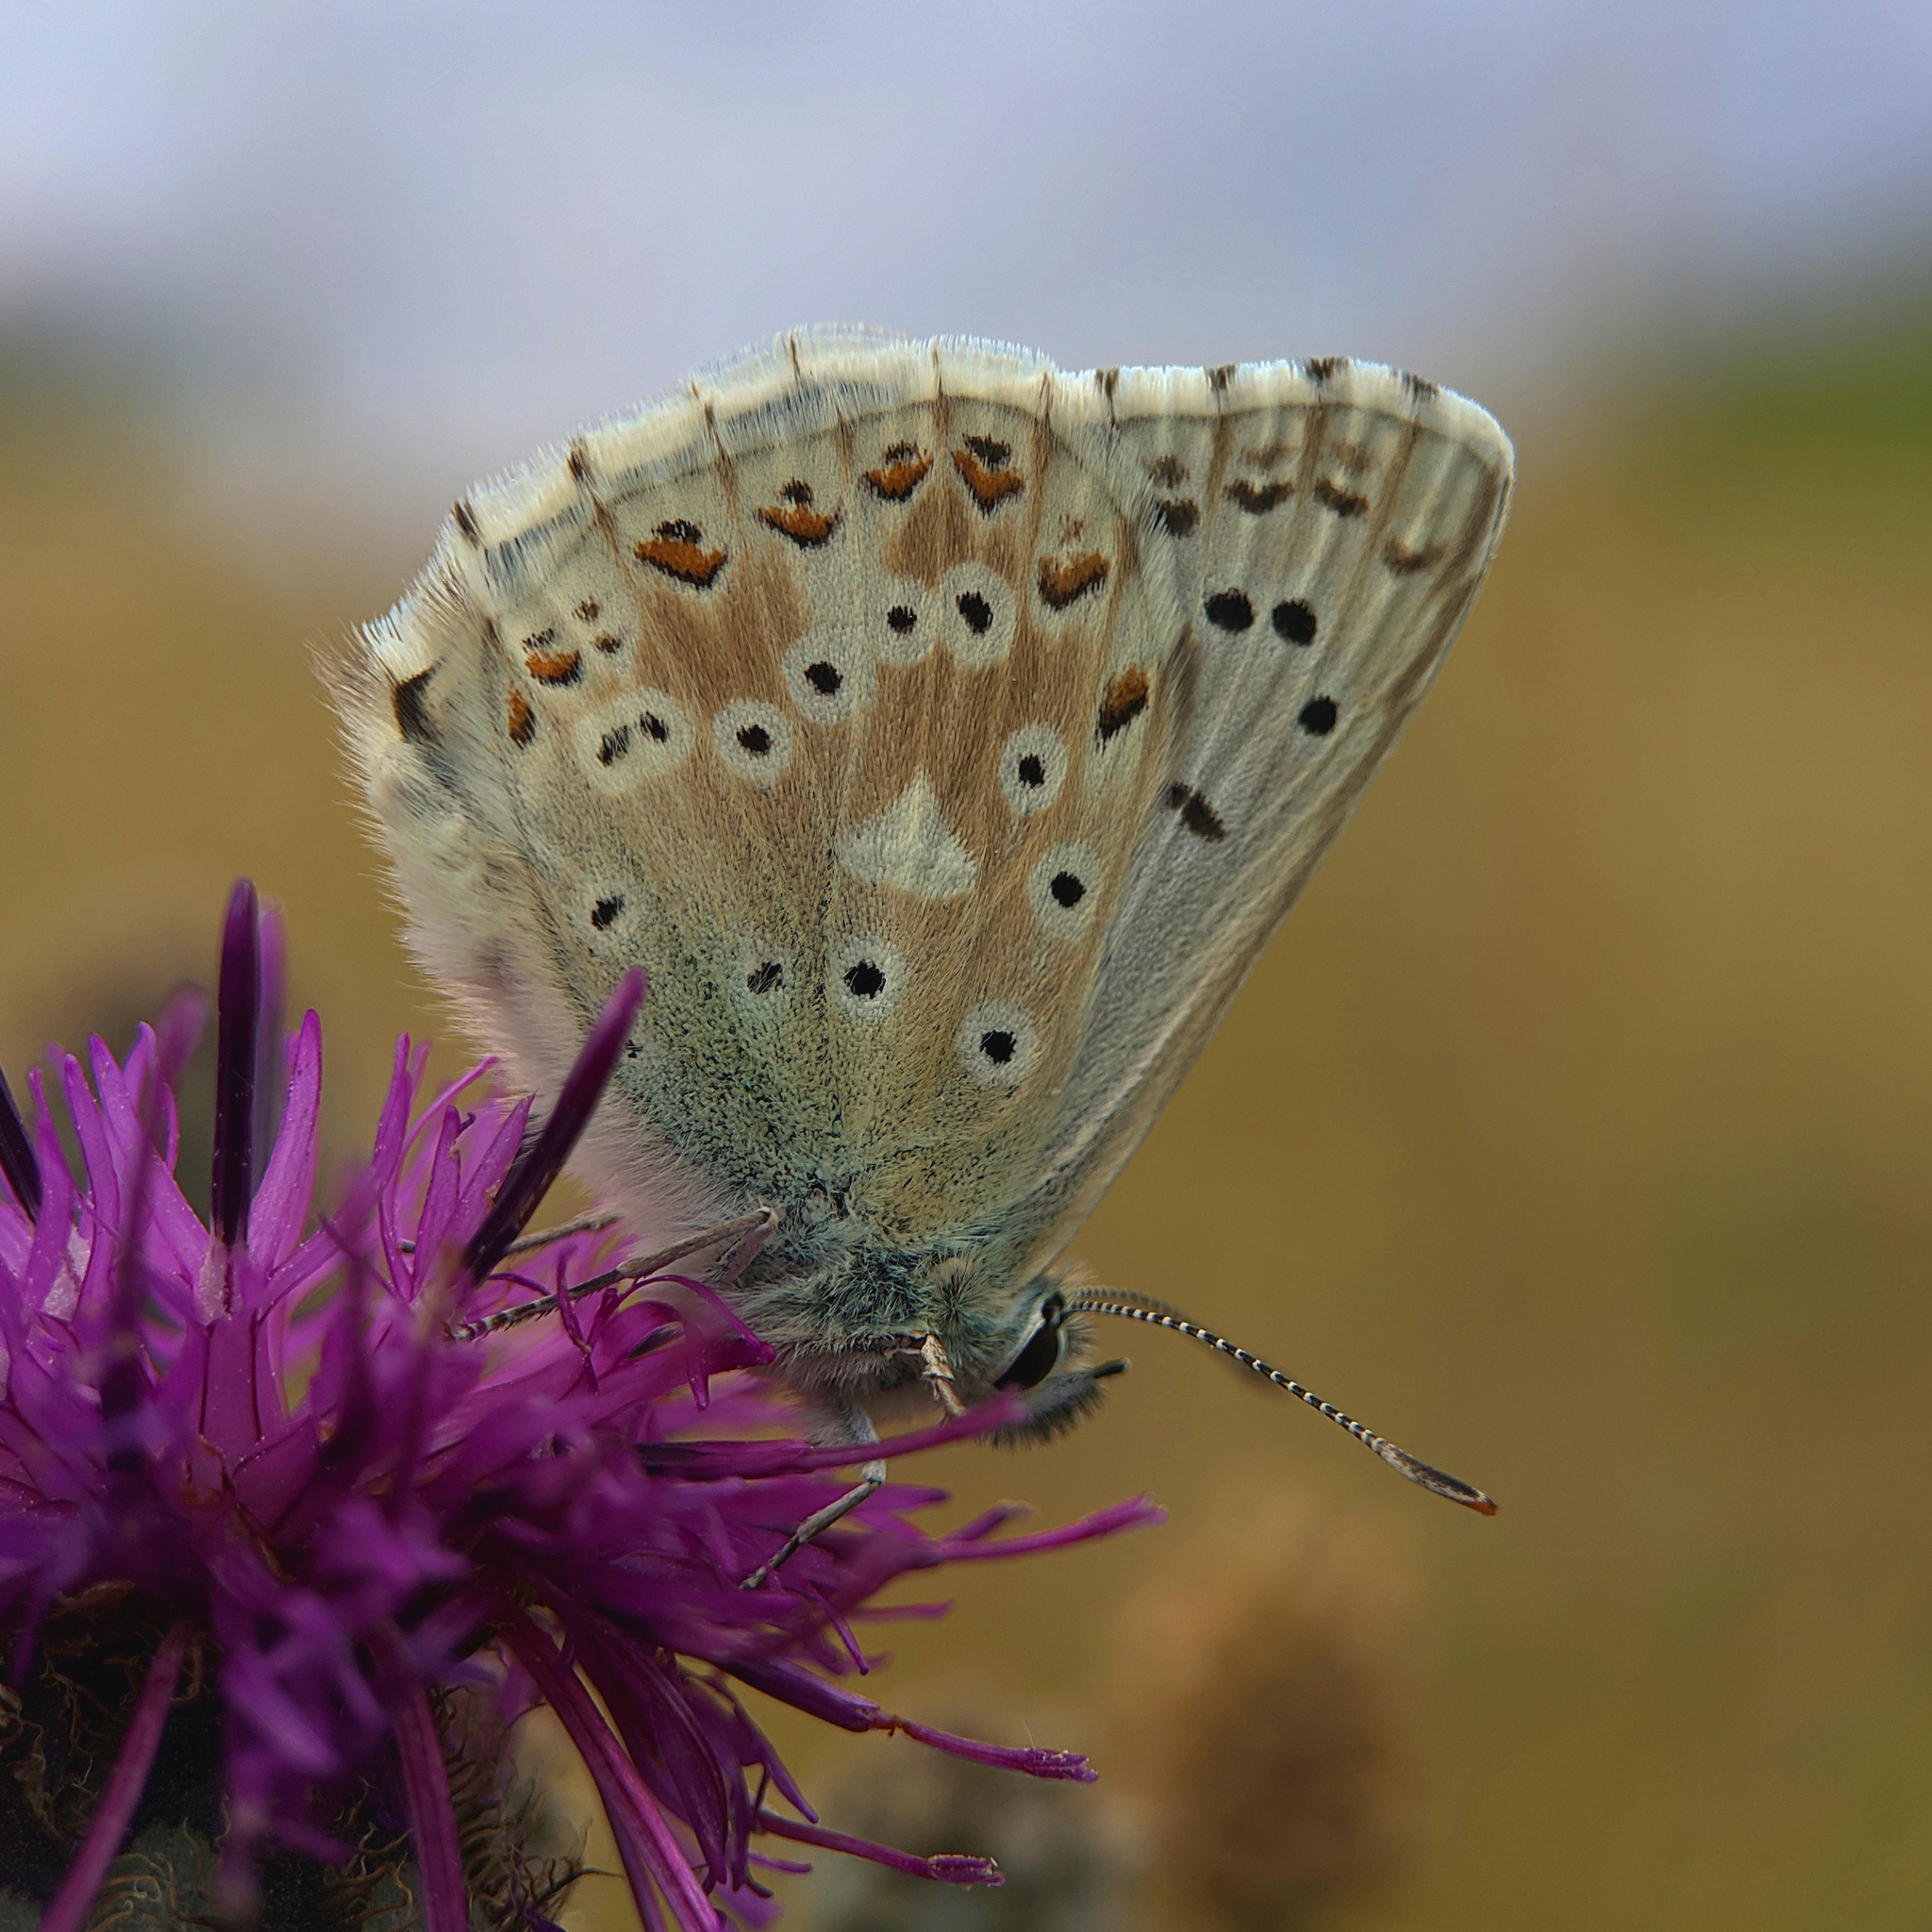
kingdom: Animalia
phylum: Arthropoda
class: Insecta
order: Lepidoptera
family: Lycaenidae
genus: Lysandra
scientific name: Lysandra coridon
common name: Chalkhill blue
